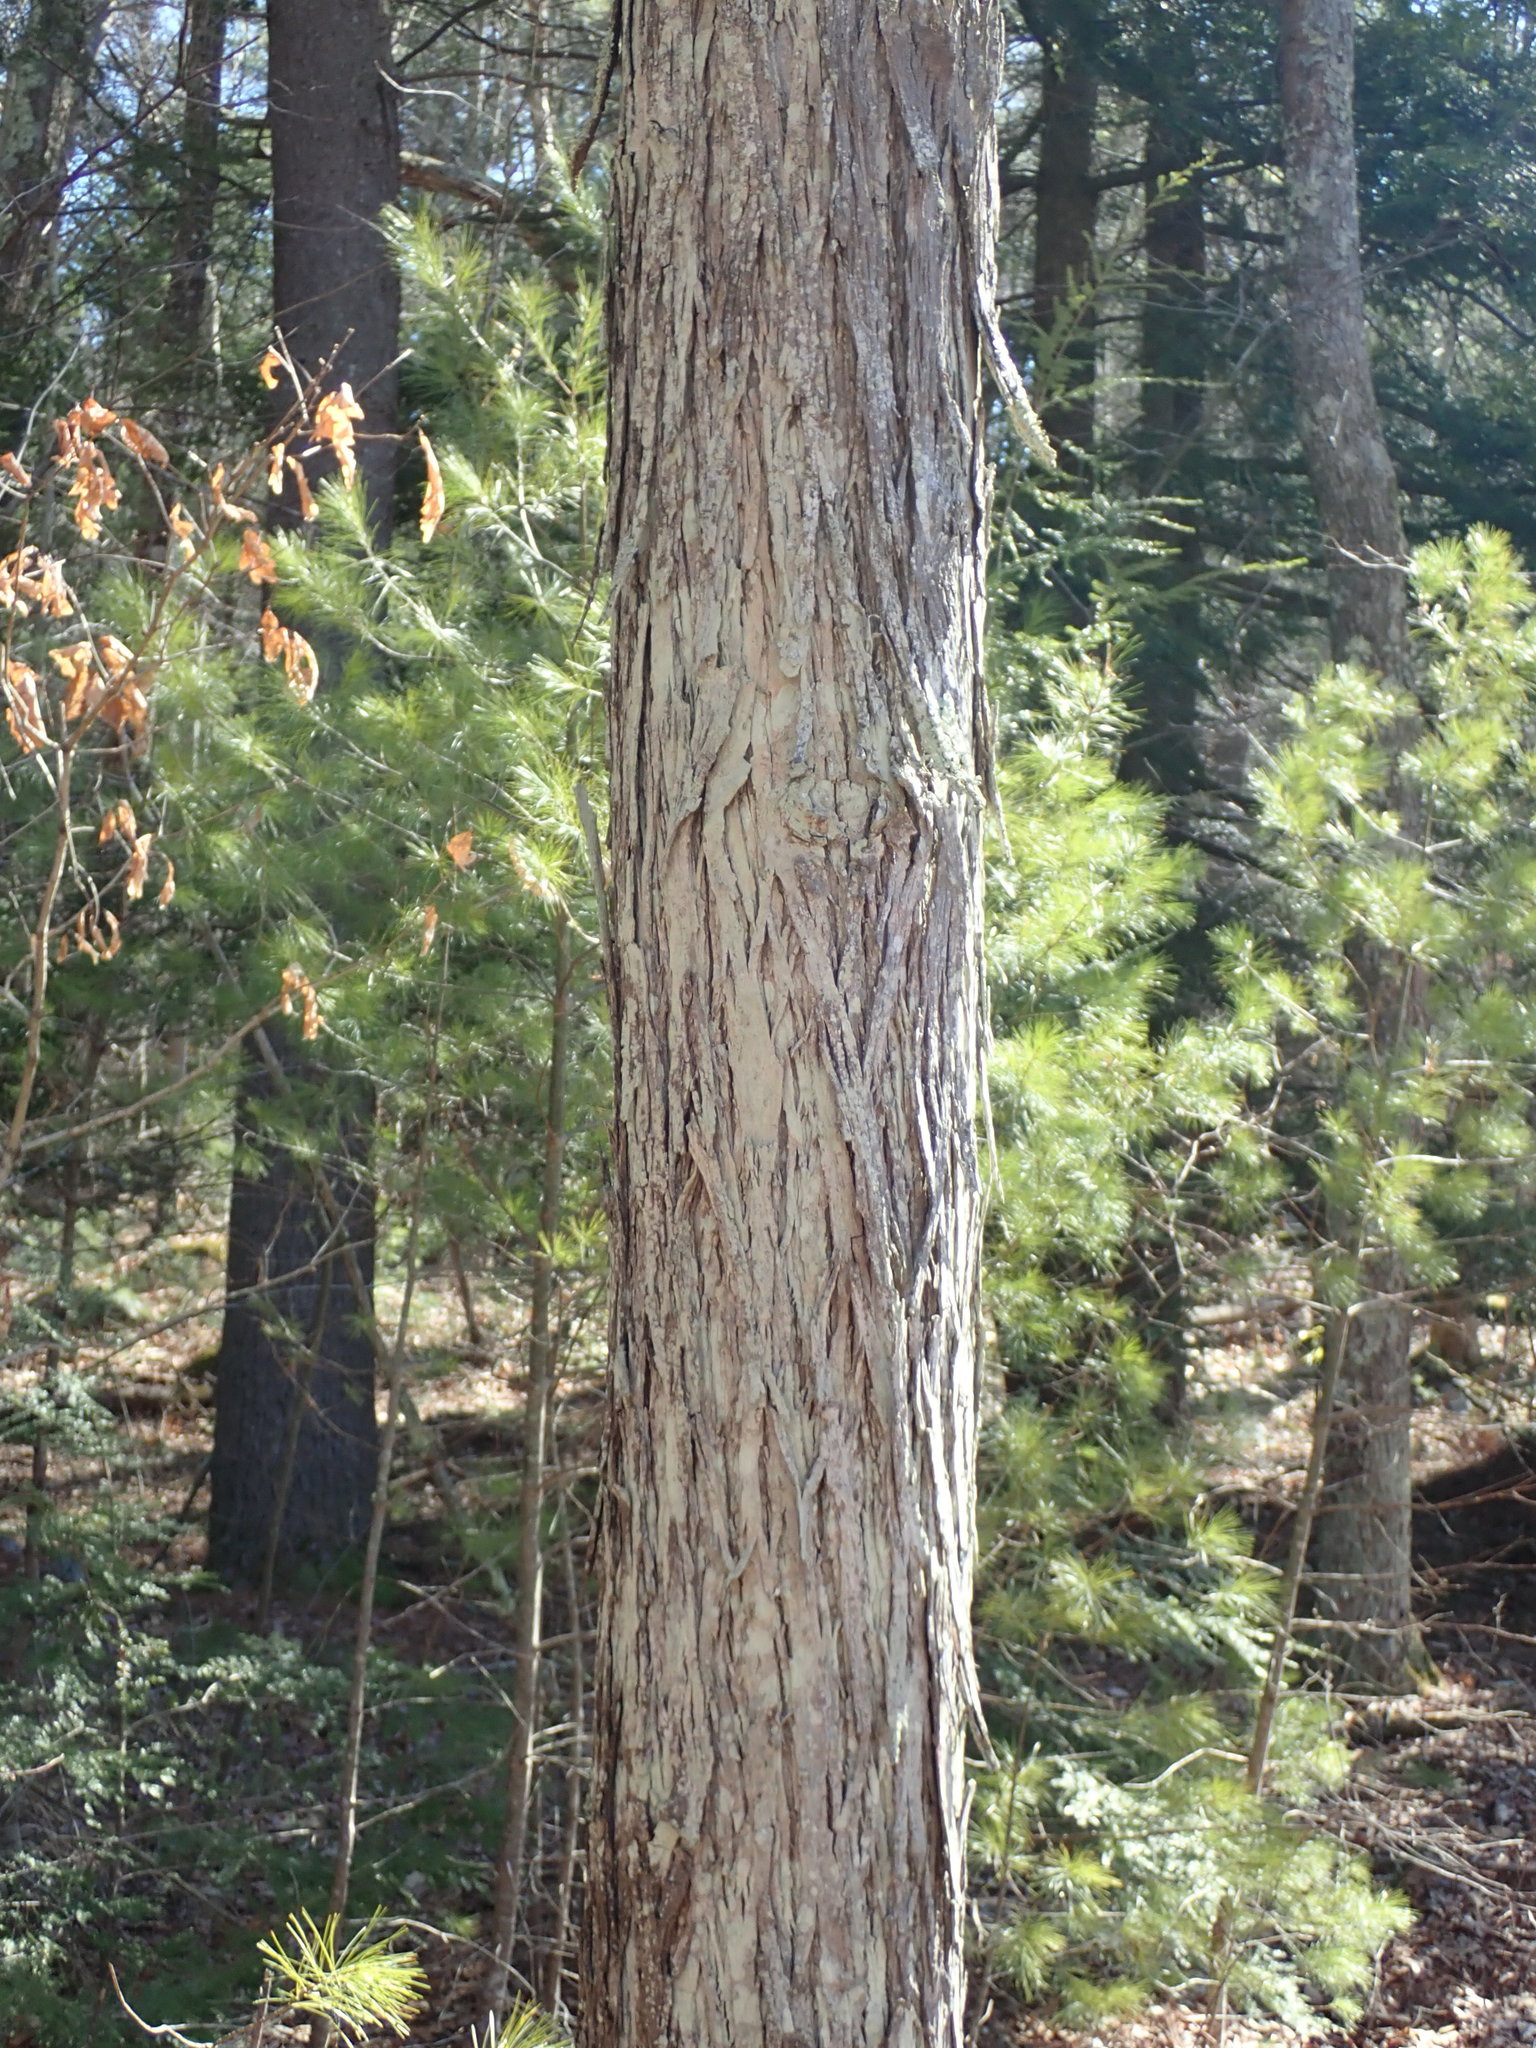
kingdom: Plantae
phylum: Tracheophyta
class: Magnoliopsida
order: Fagales
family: Juglandaceae
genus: Carya
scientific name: Carya ovata
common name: Shagbark hickory
